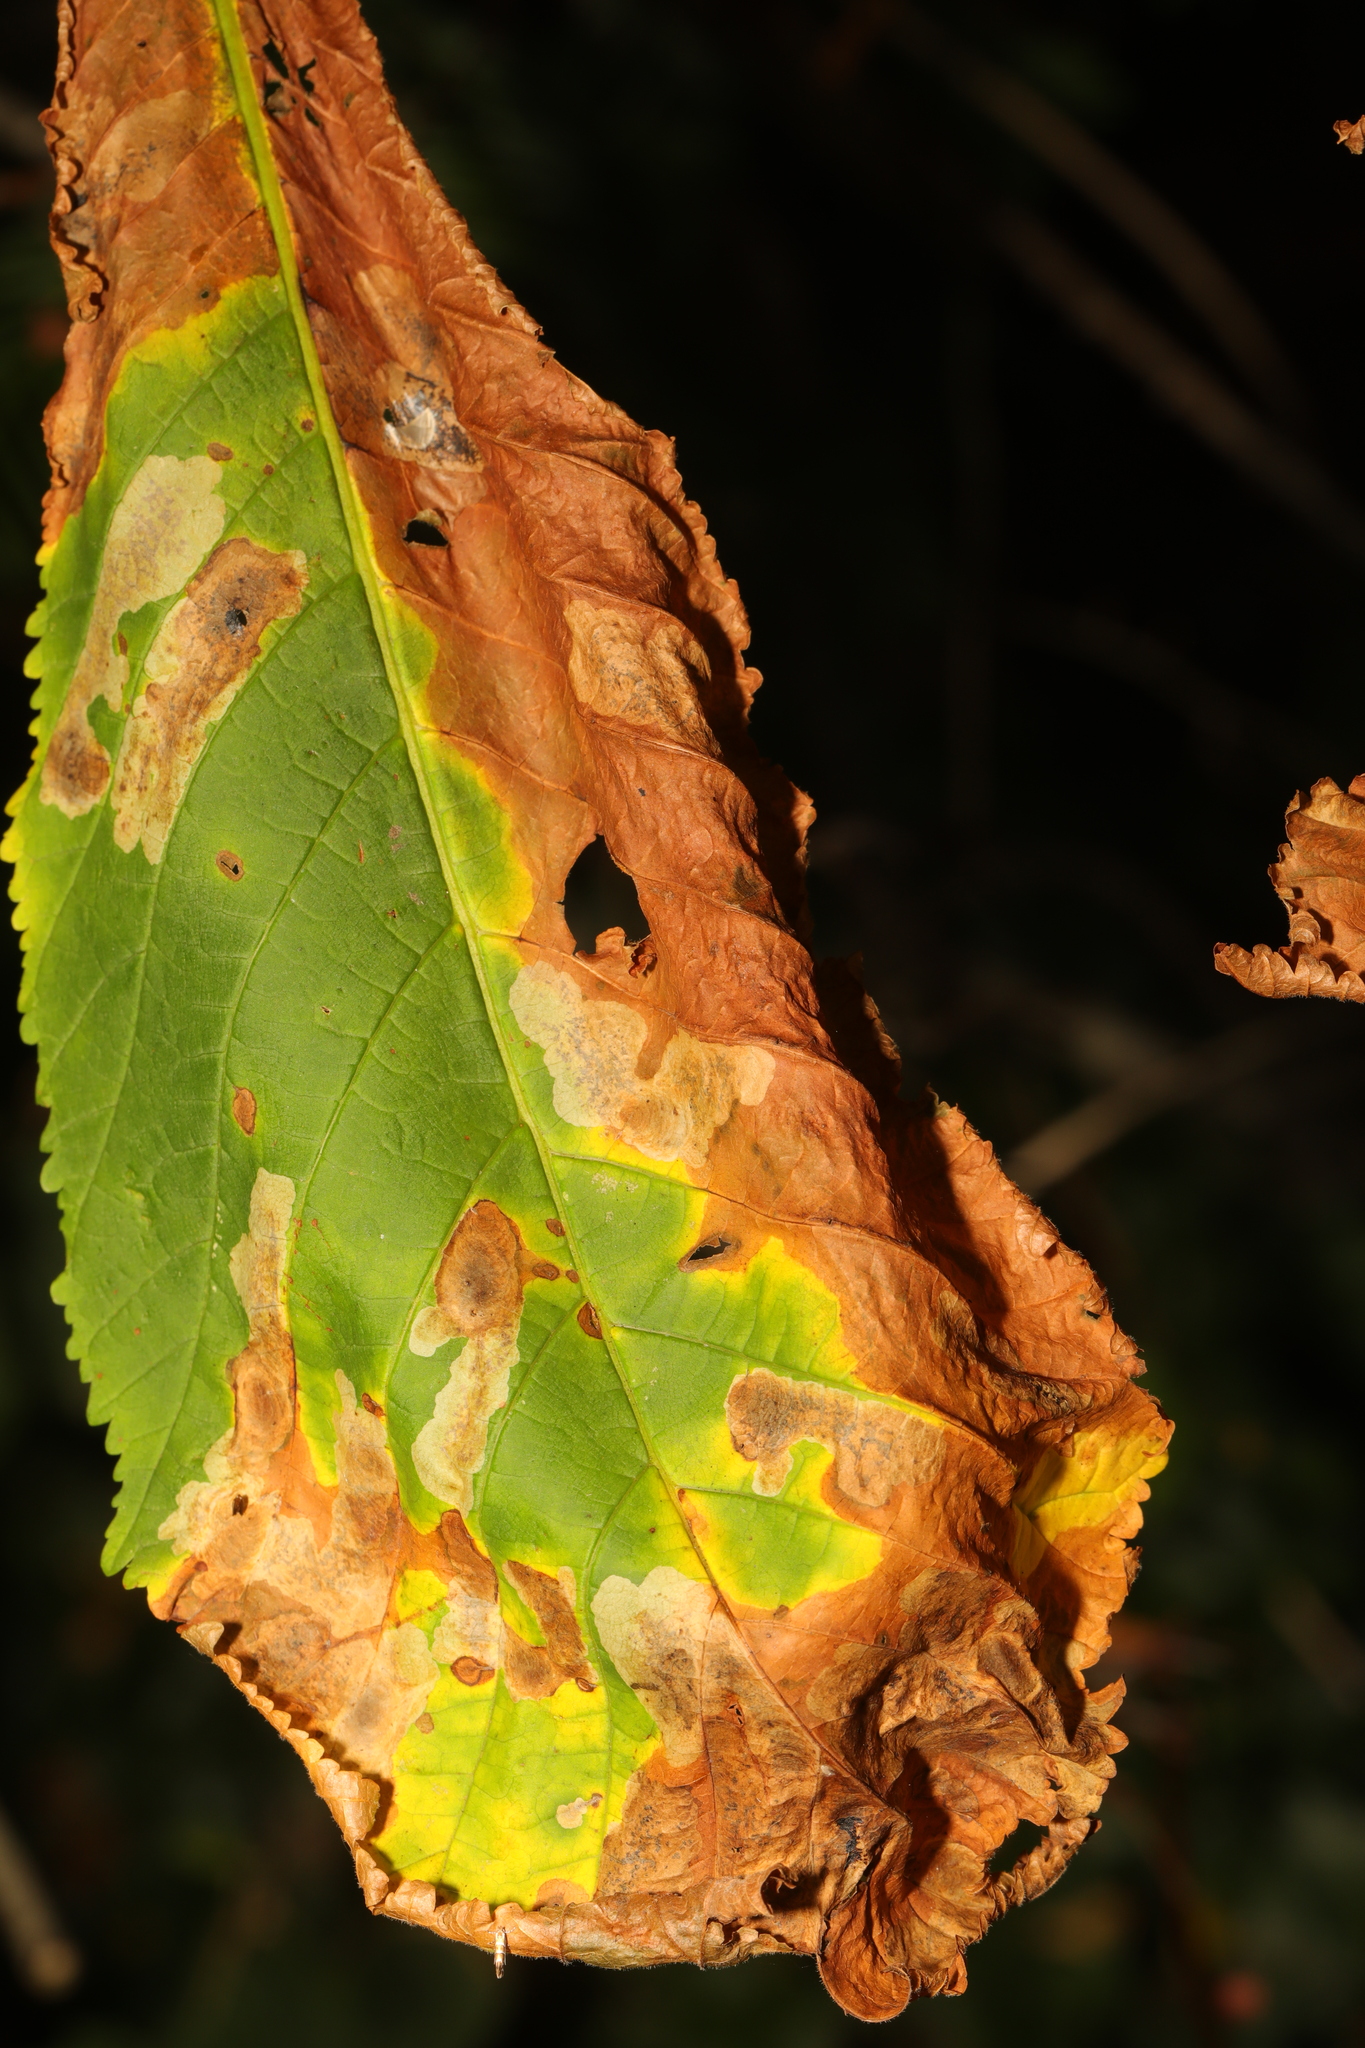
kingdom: Fungi
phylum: Ascomycota
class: Dothideomycetes
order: Botryosphaeriales
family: Phyllostictaceae
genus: Phyllosticta
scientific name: Phyllosticta paviae
